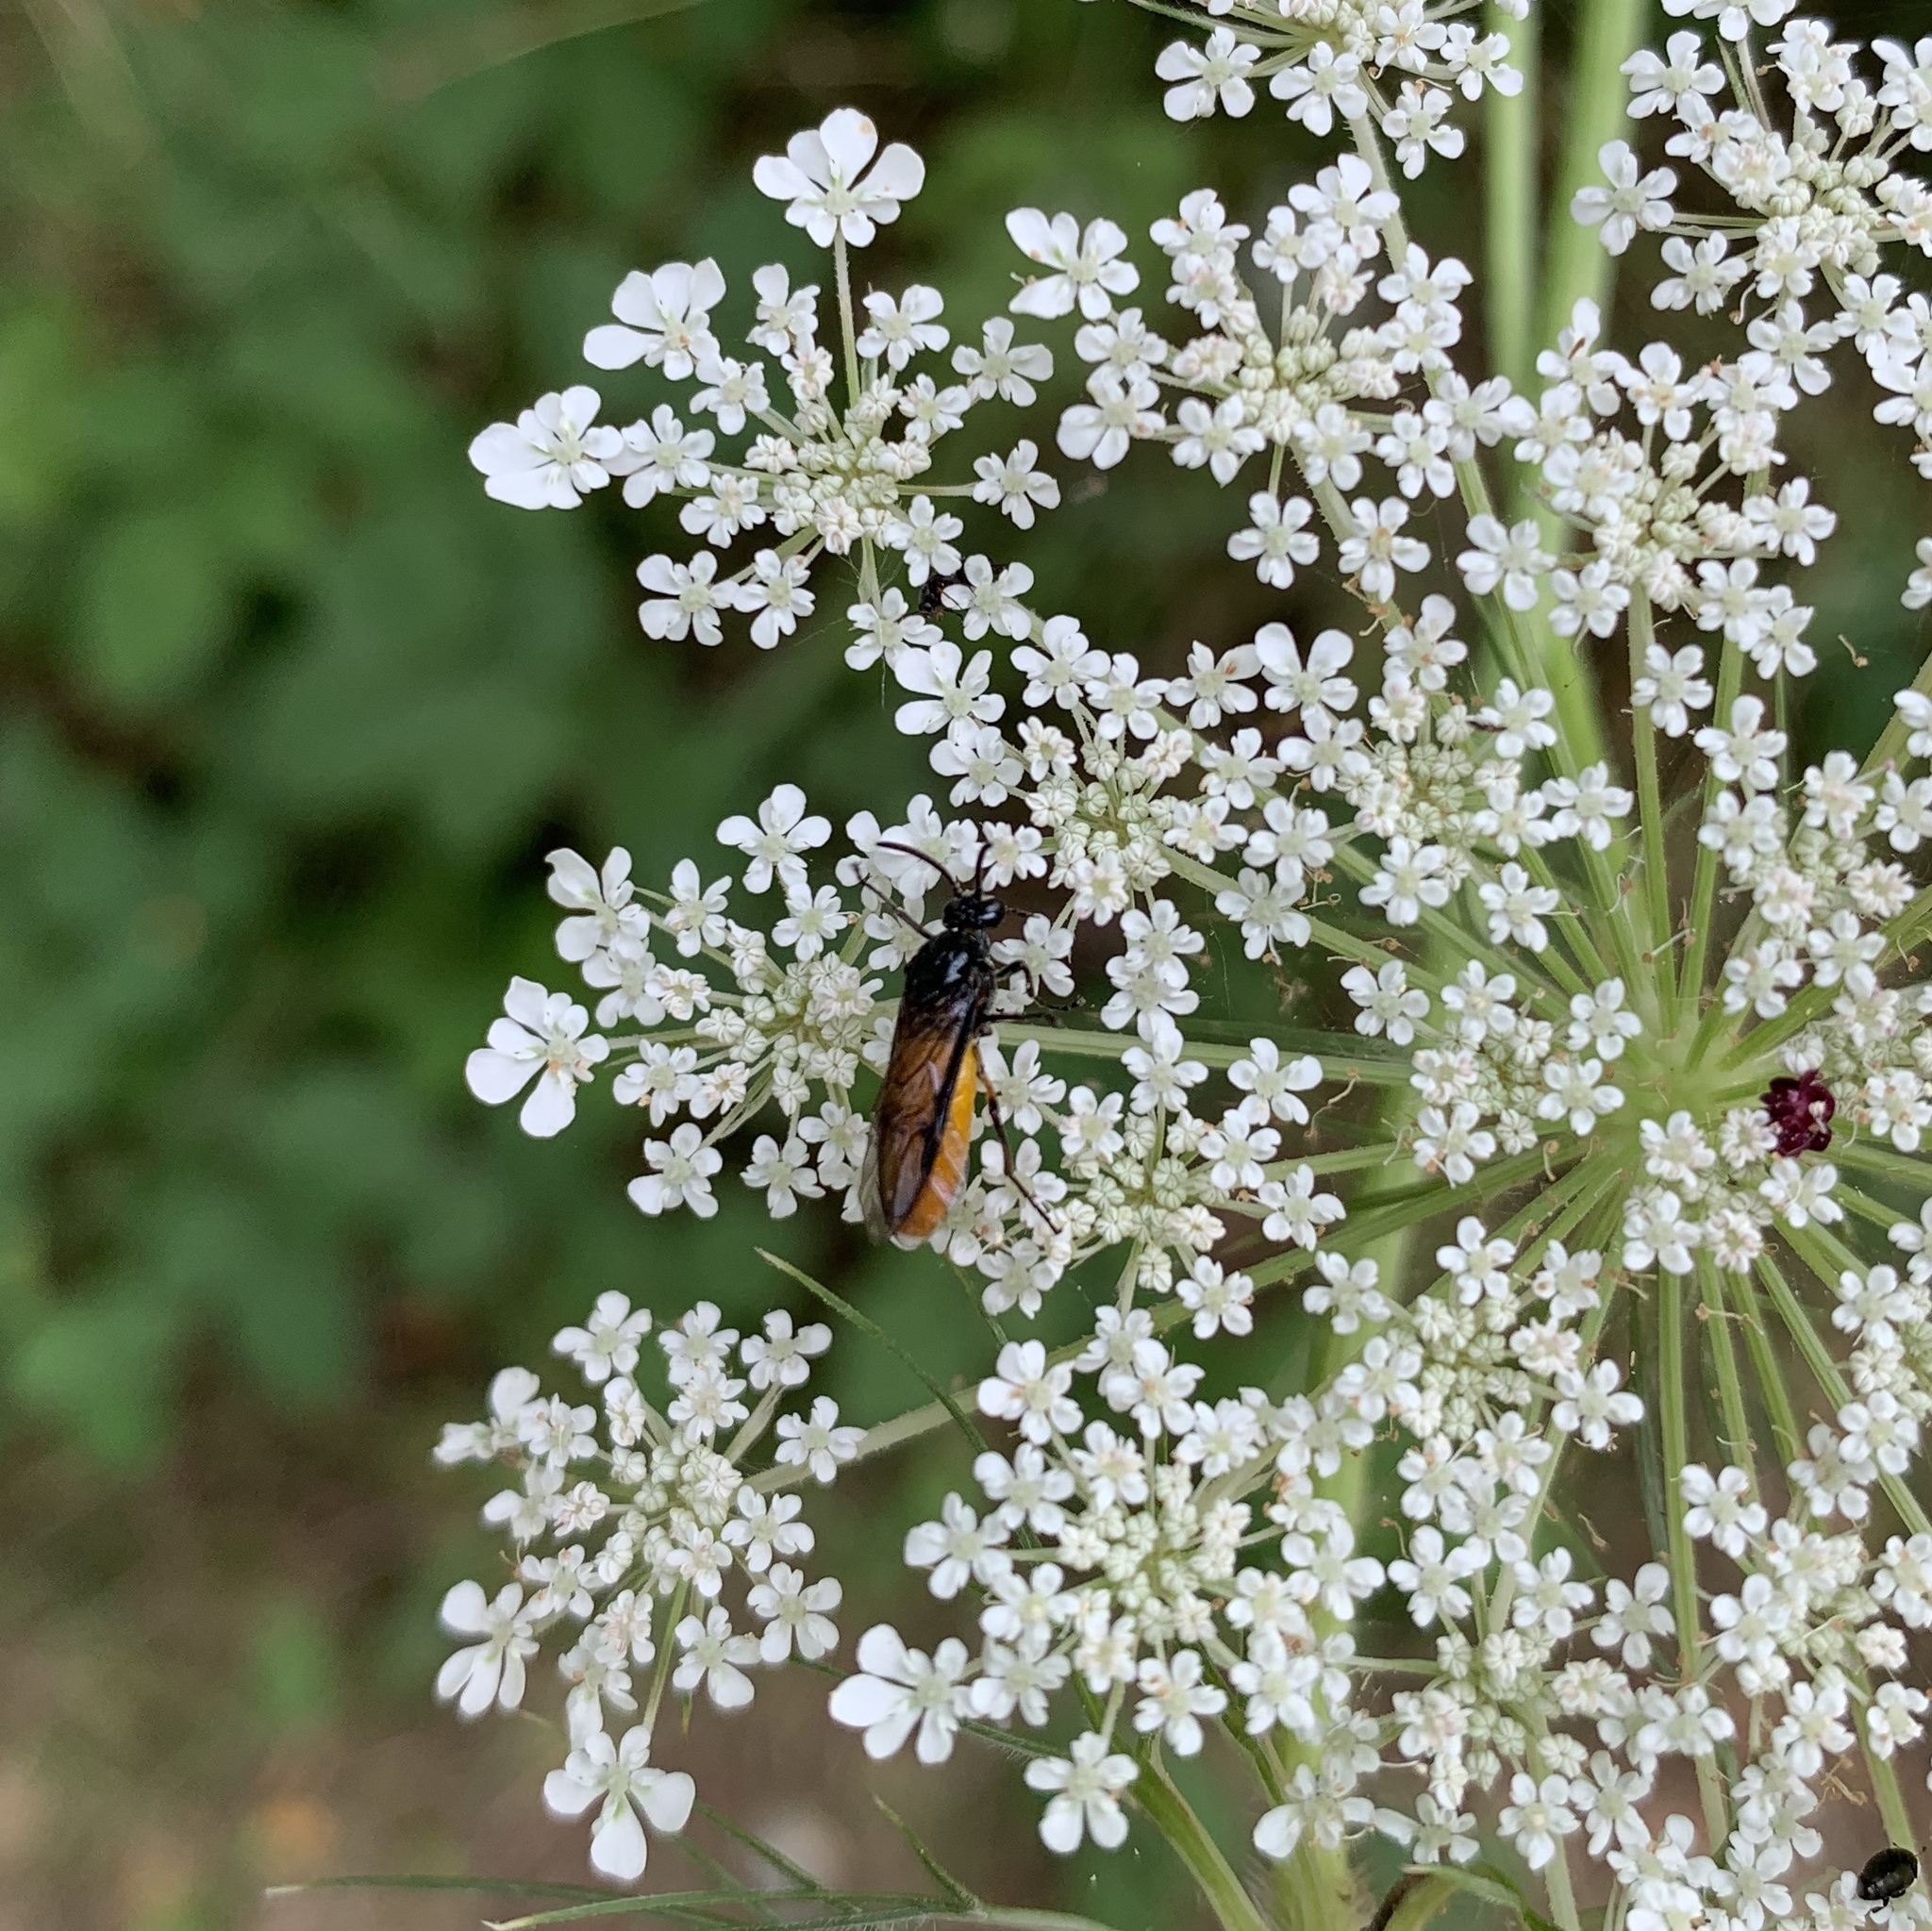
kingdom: Animalia
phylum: Arthropoda
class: Insecta
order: Hymenoptera
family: Argidae
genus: Arge
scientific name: Arge pagana
